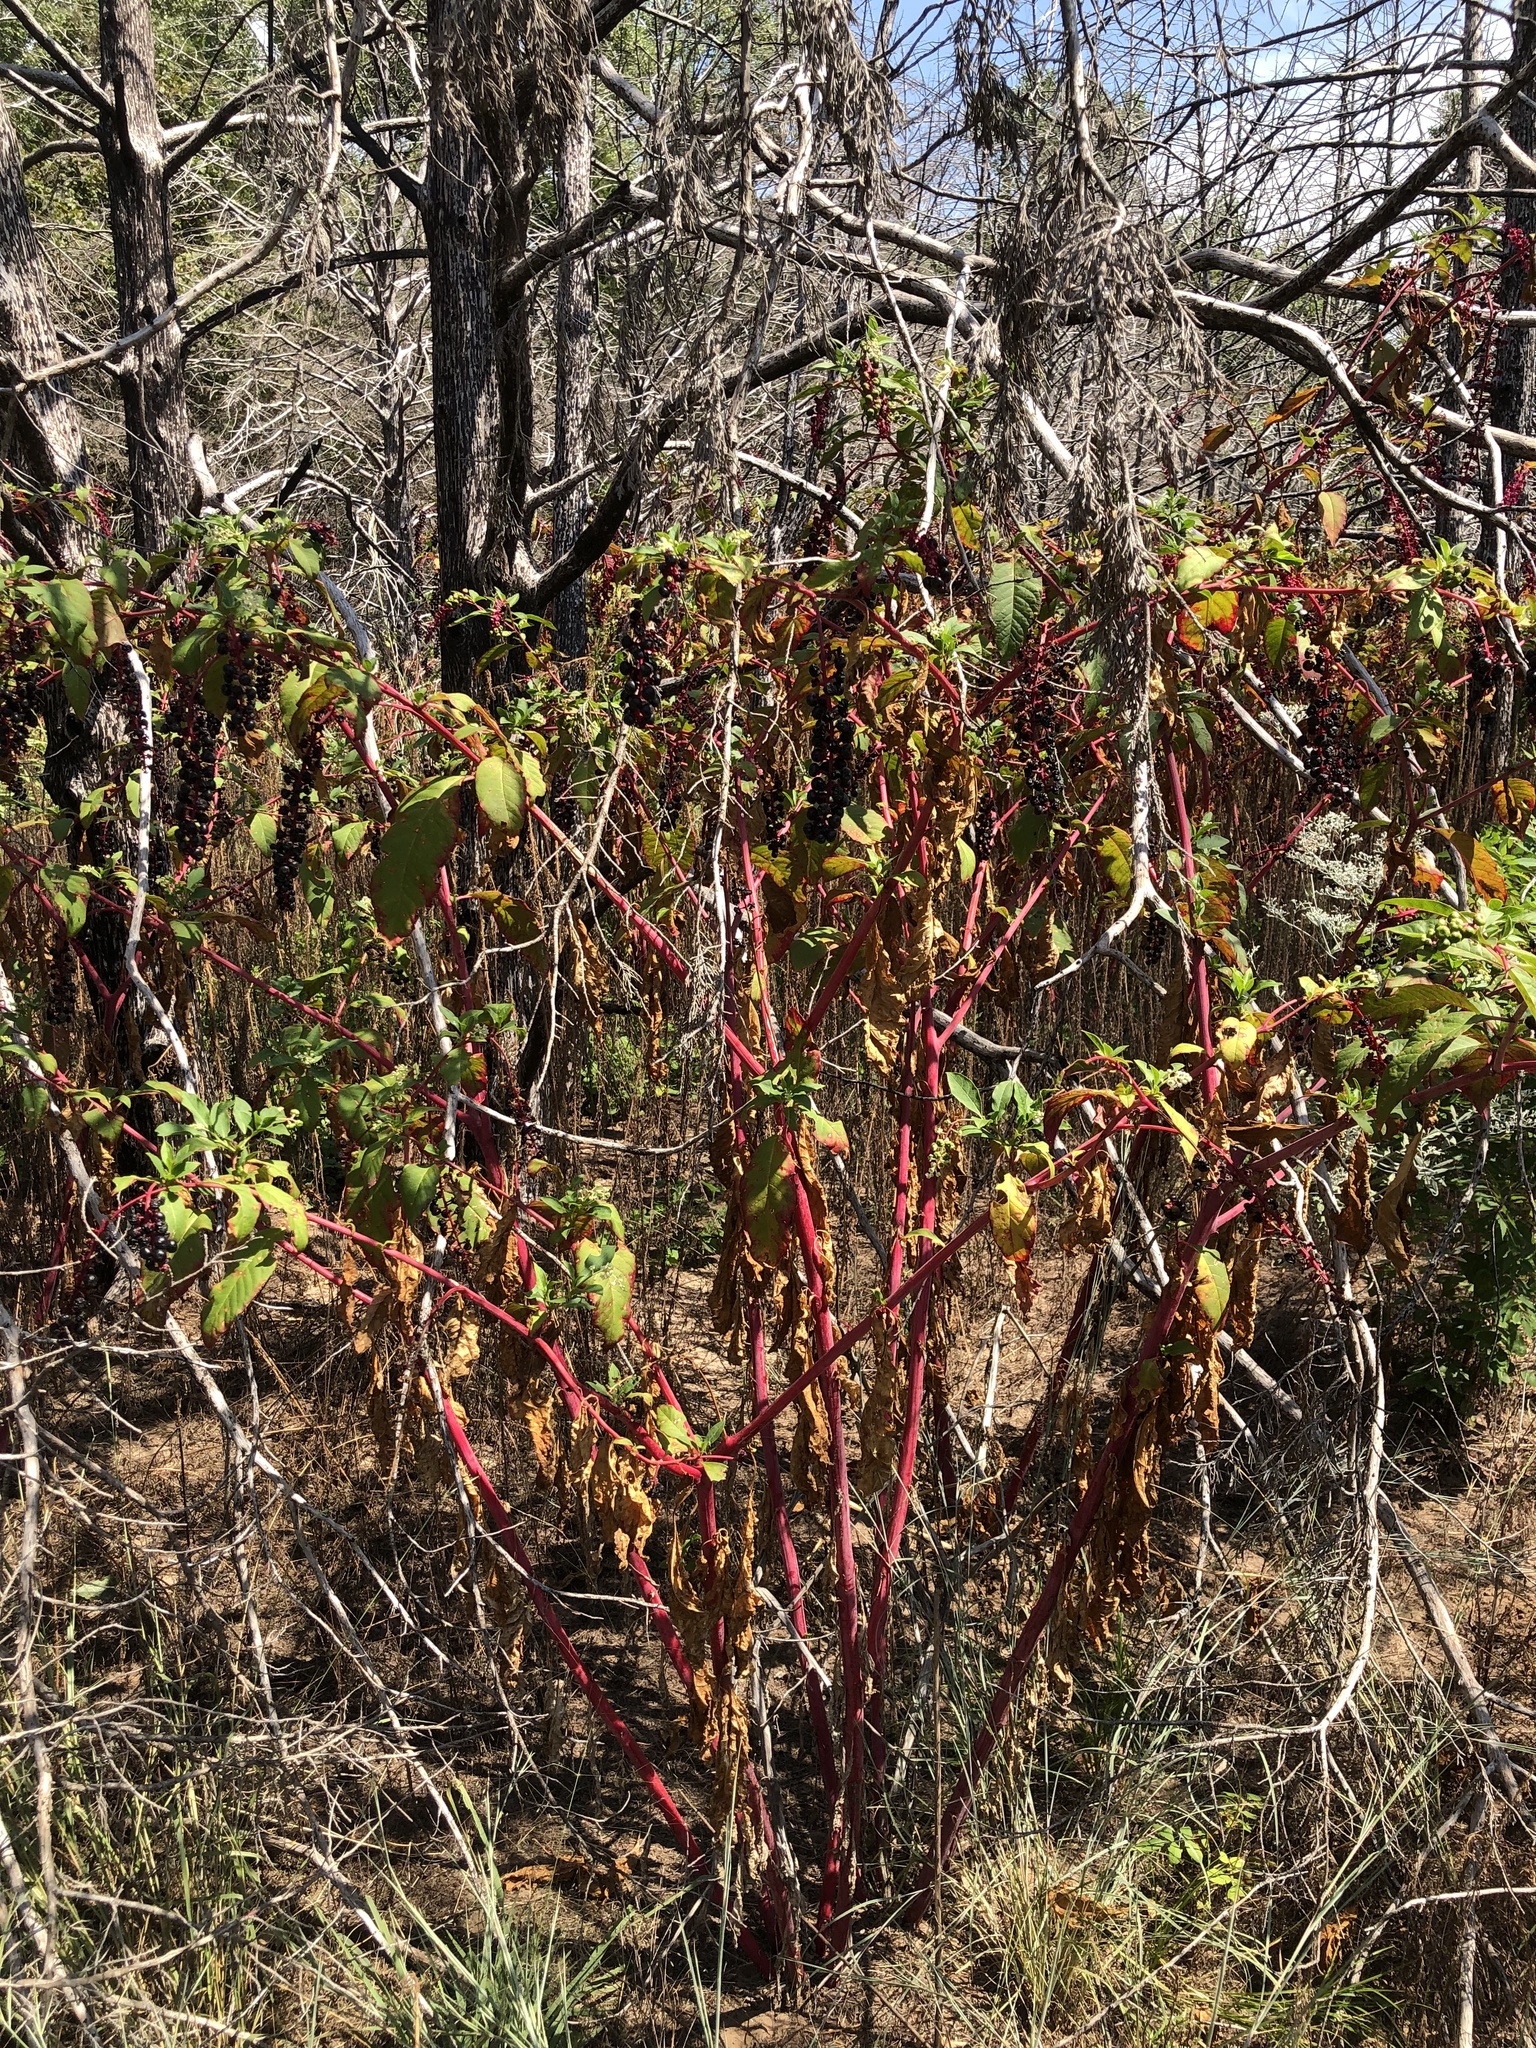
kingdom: Plantae
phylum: Tracheophyta
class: Magnoliopsida
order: Caryophyllales
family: Phytolaccaceae
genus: Phytolacca
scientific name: Phytolacca americana
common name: American pokeweed
